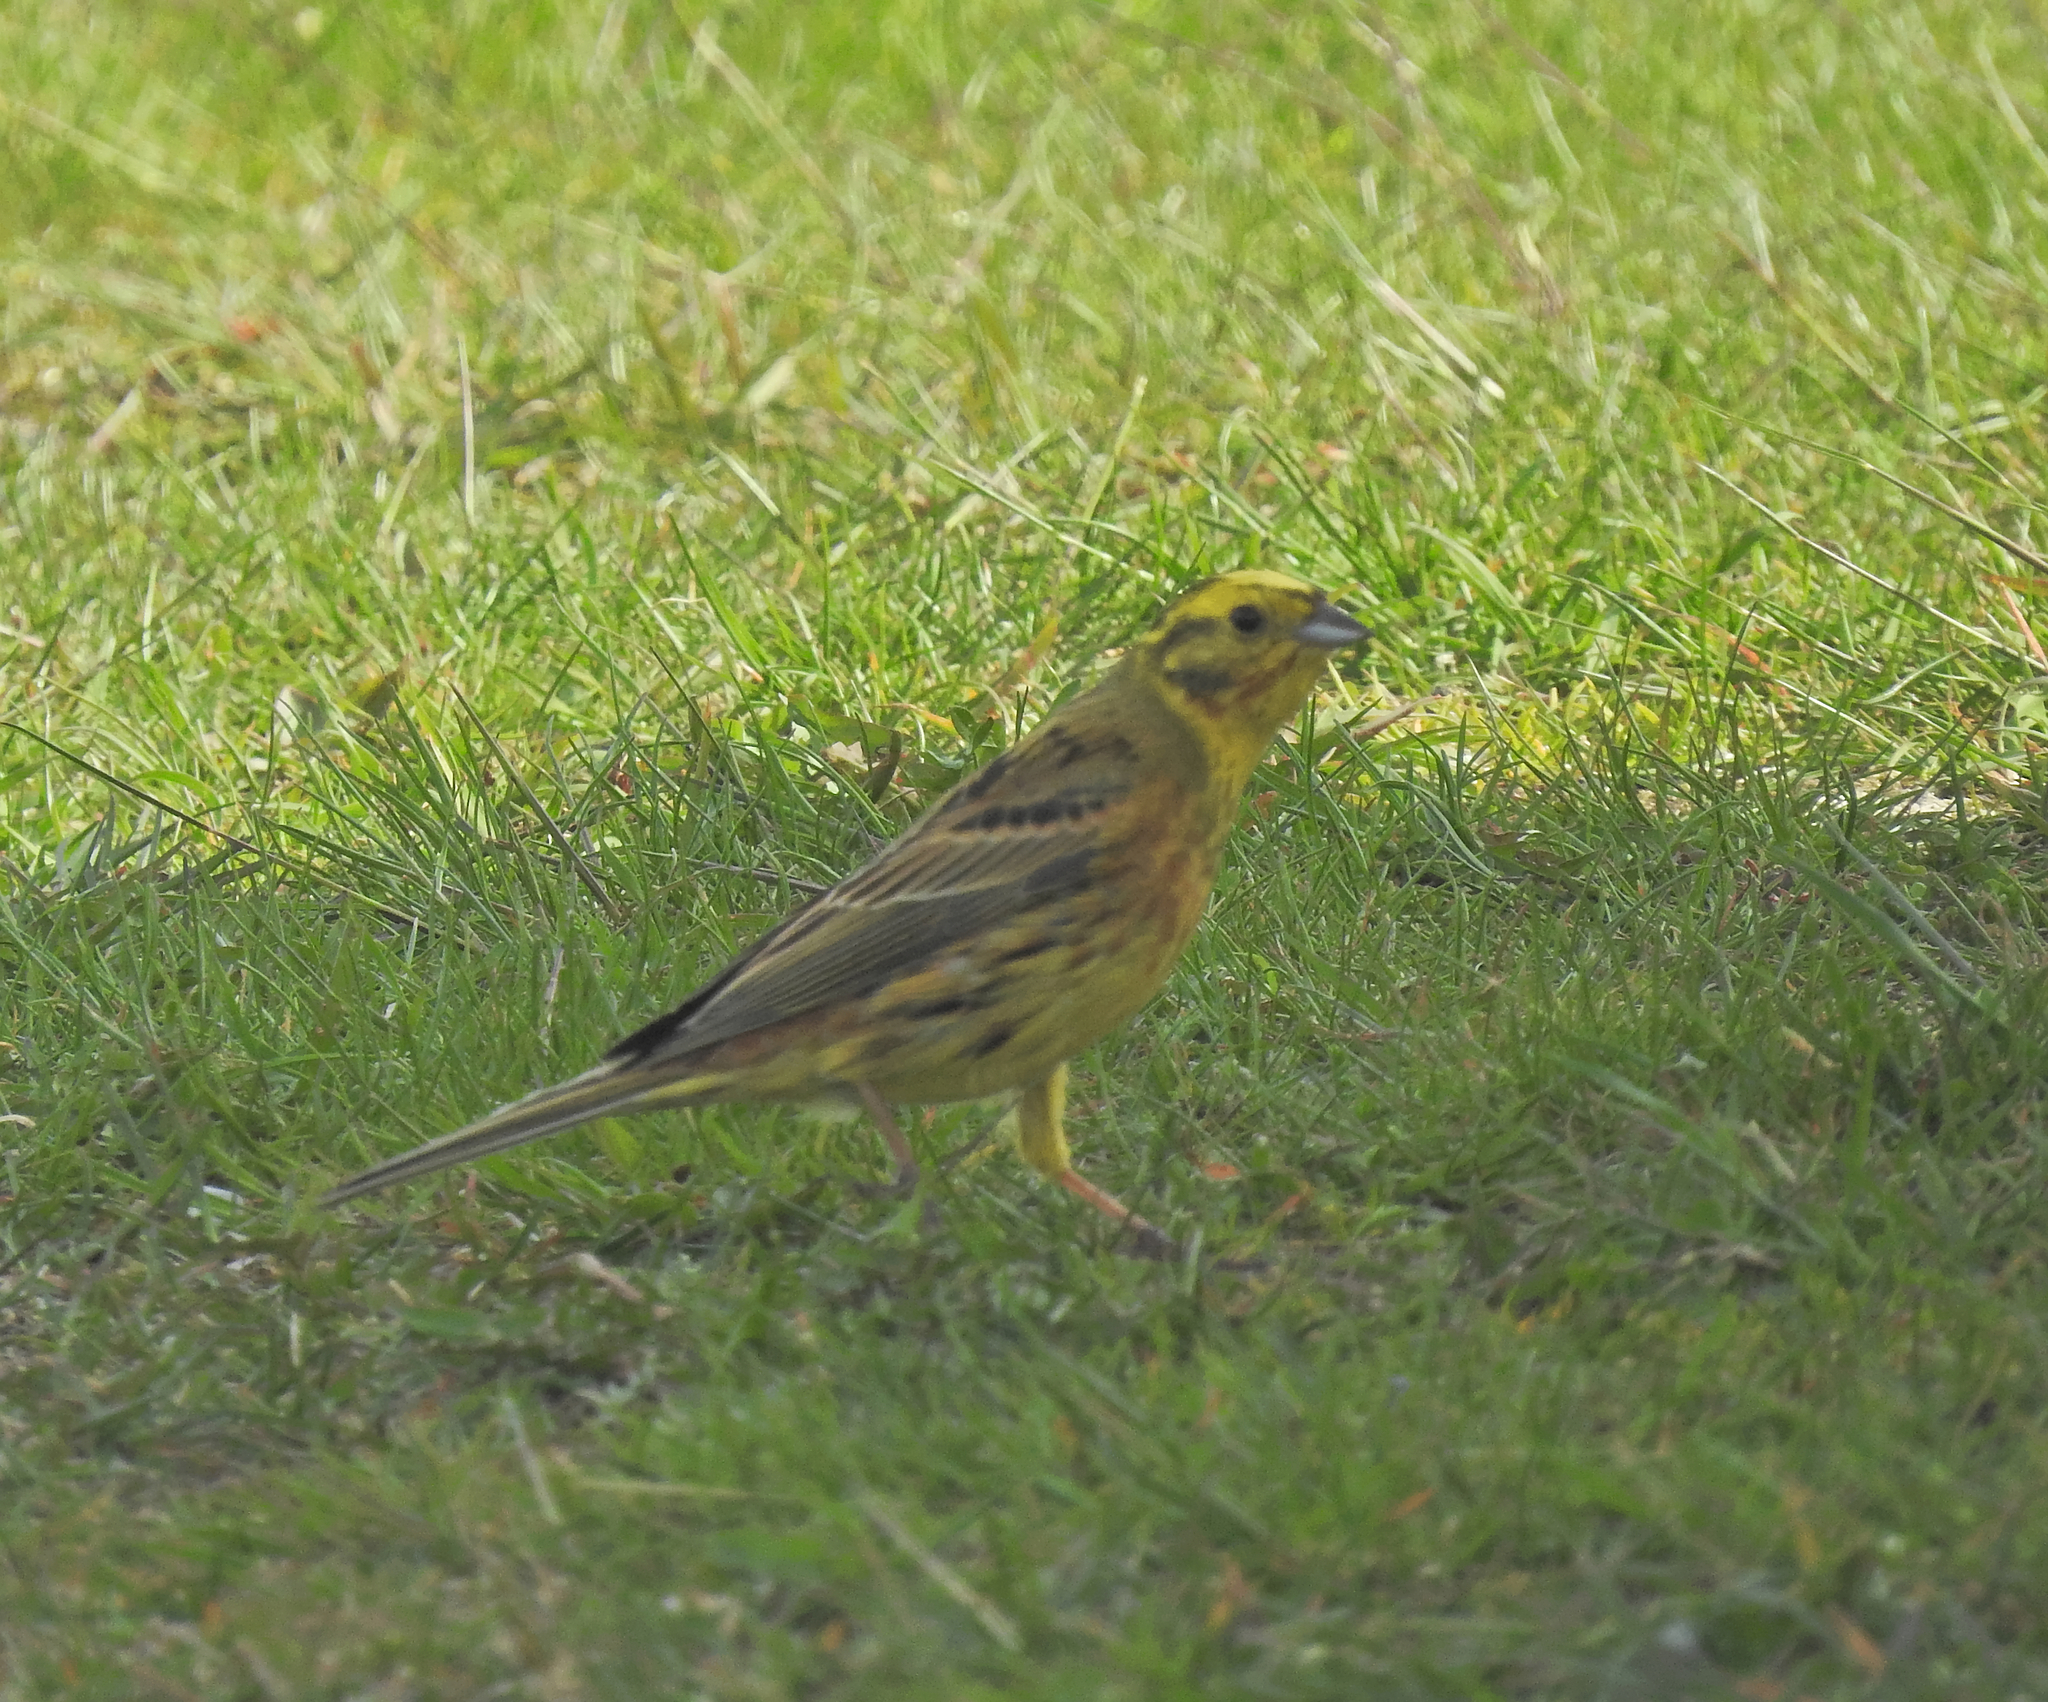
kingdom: Animalia
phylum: Chordata
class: Aves
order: Passeriformes
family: Emberizidae
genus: Emberiza
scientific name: Emberiza citrinella
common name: Yellowhammer
